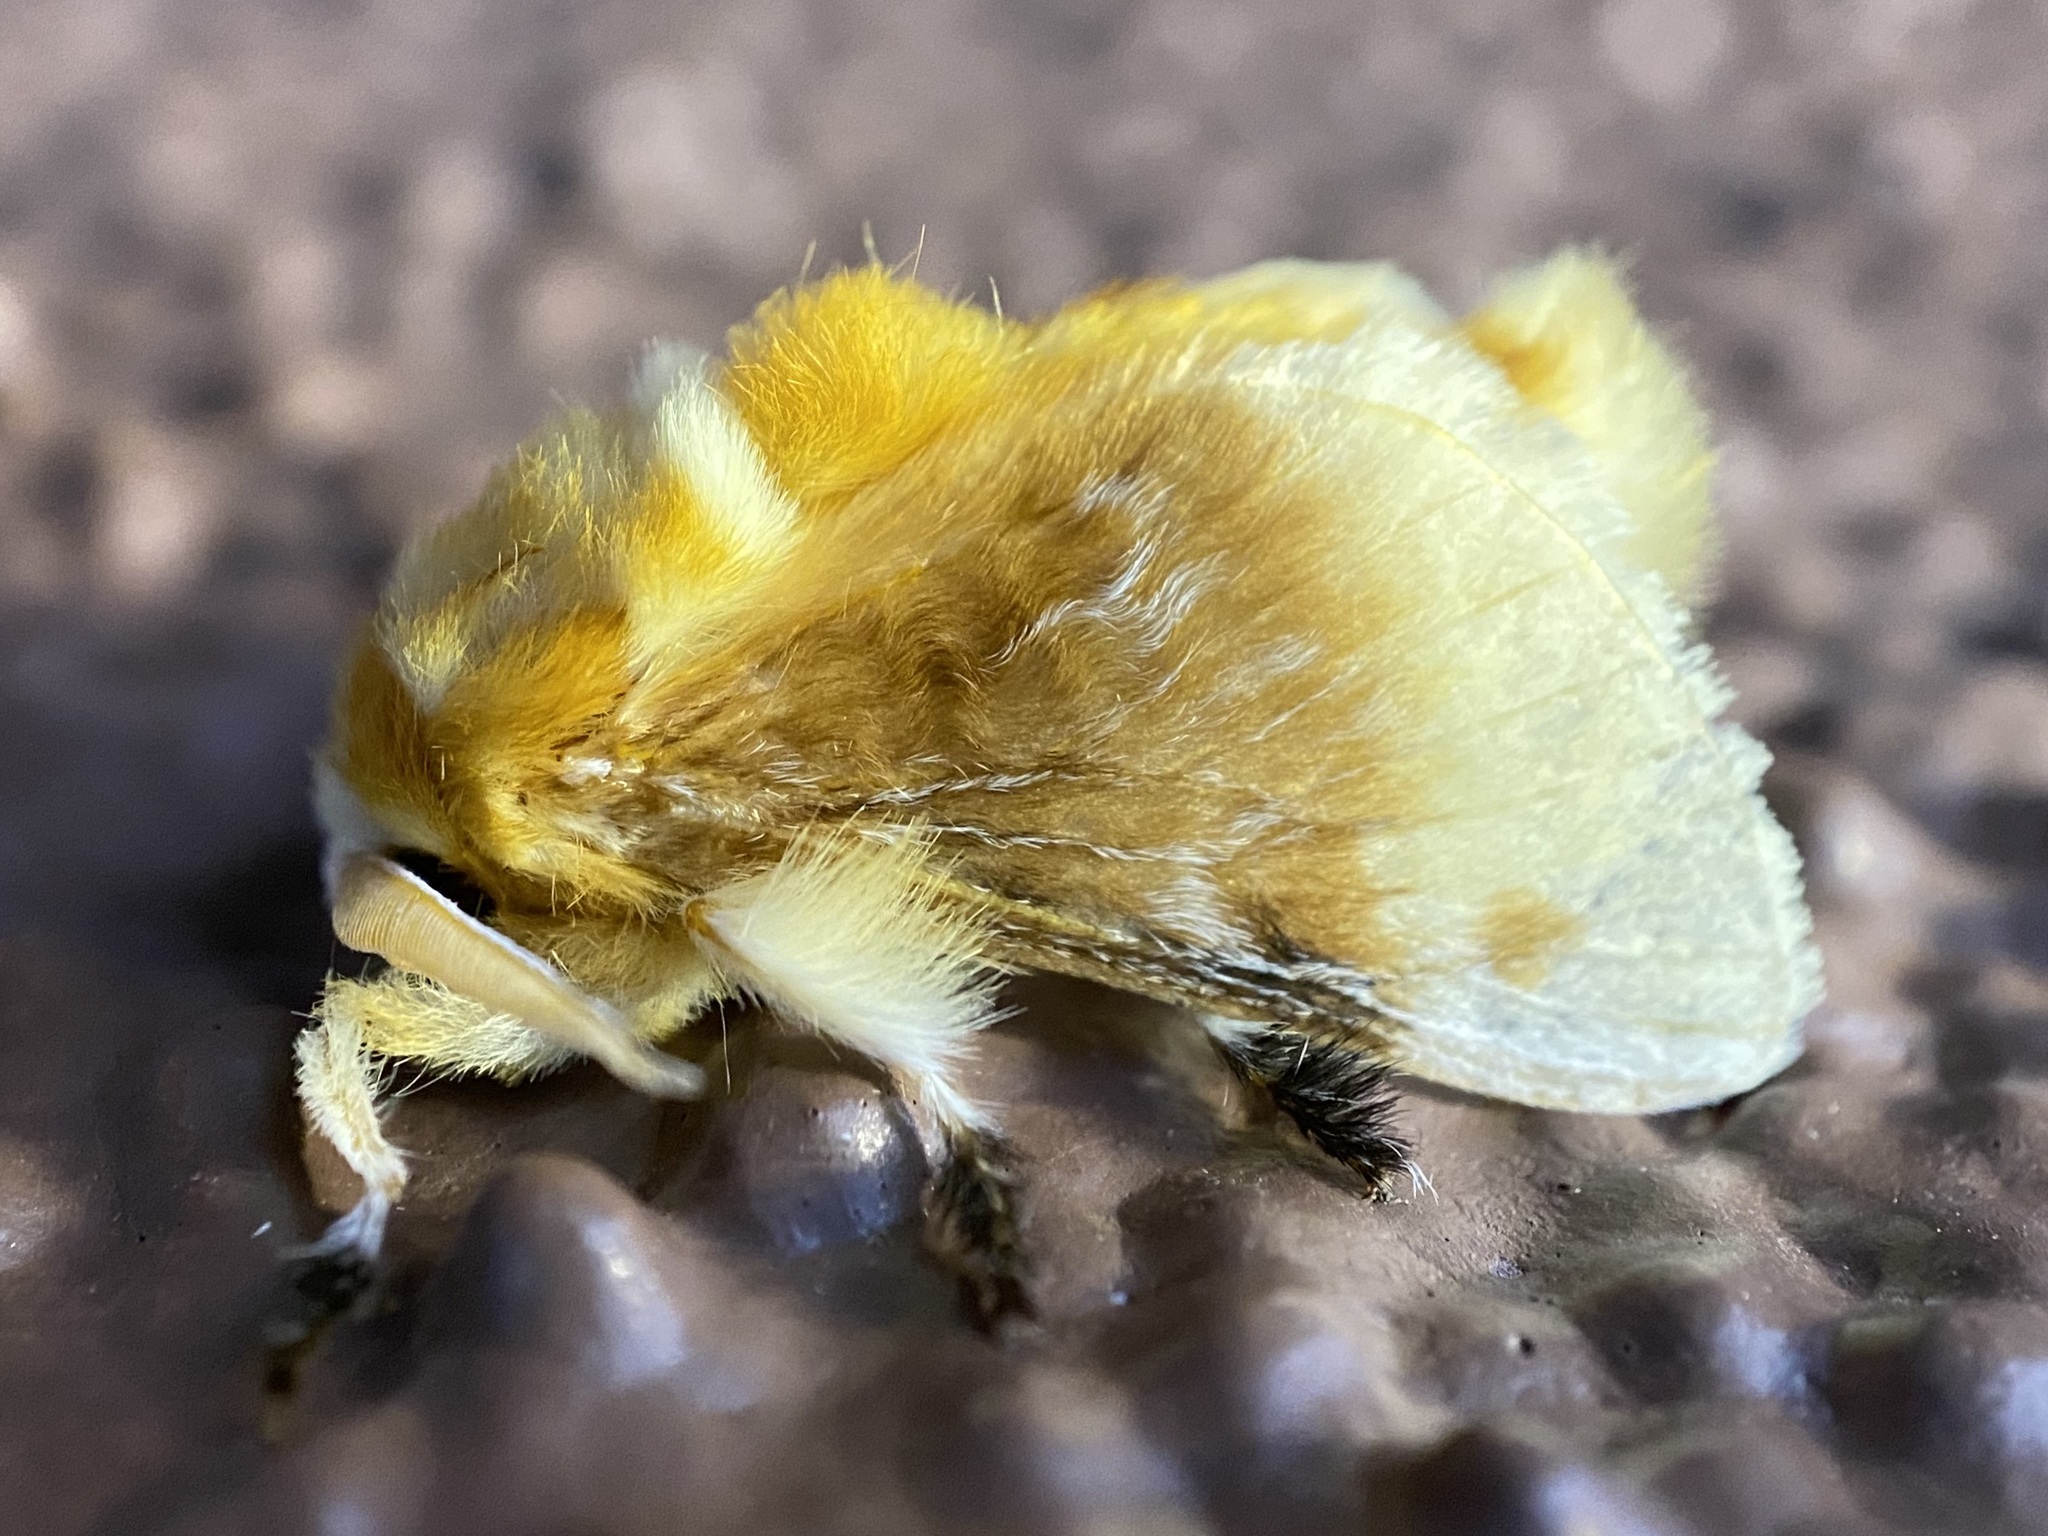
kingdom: Animalia
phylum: Arthropoda
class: Insecta
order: Lepidoptera
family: Megalopygidae
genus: Megalopyge
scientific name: Megalopyge opercularis
